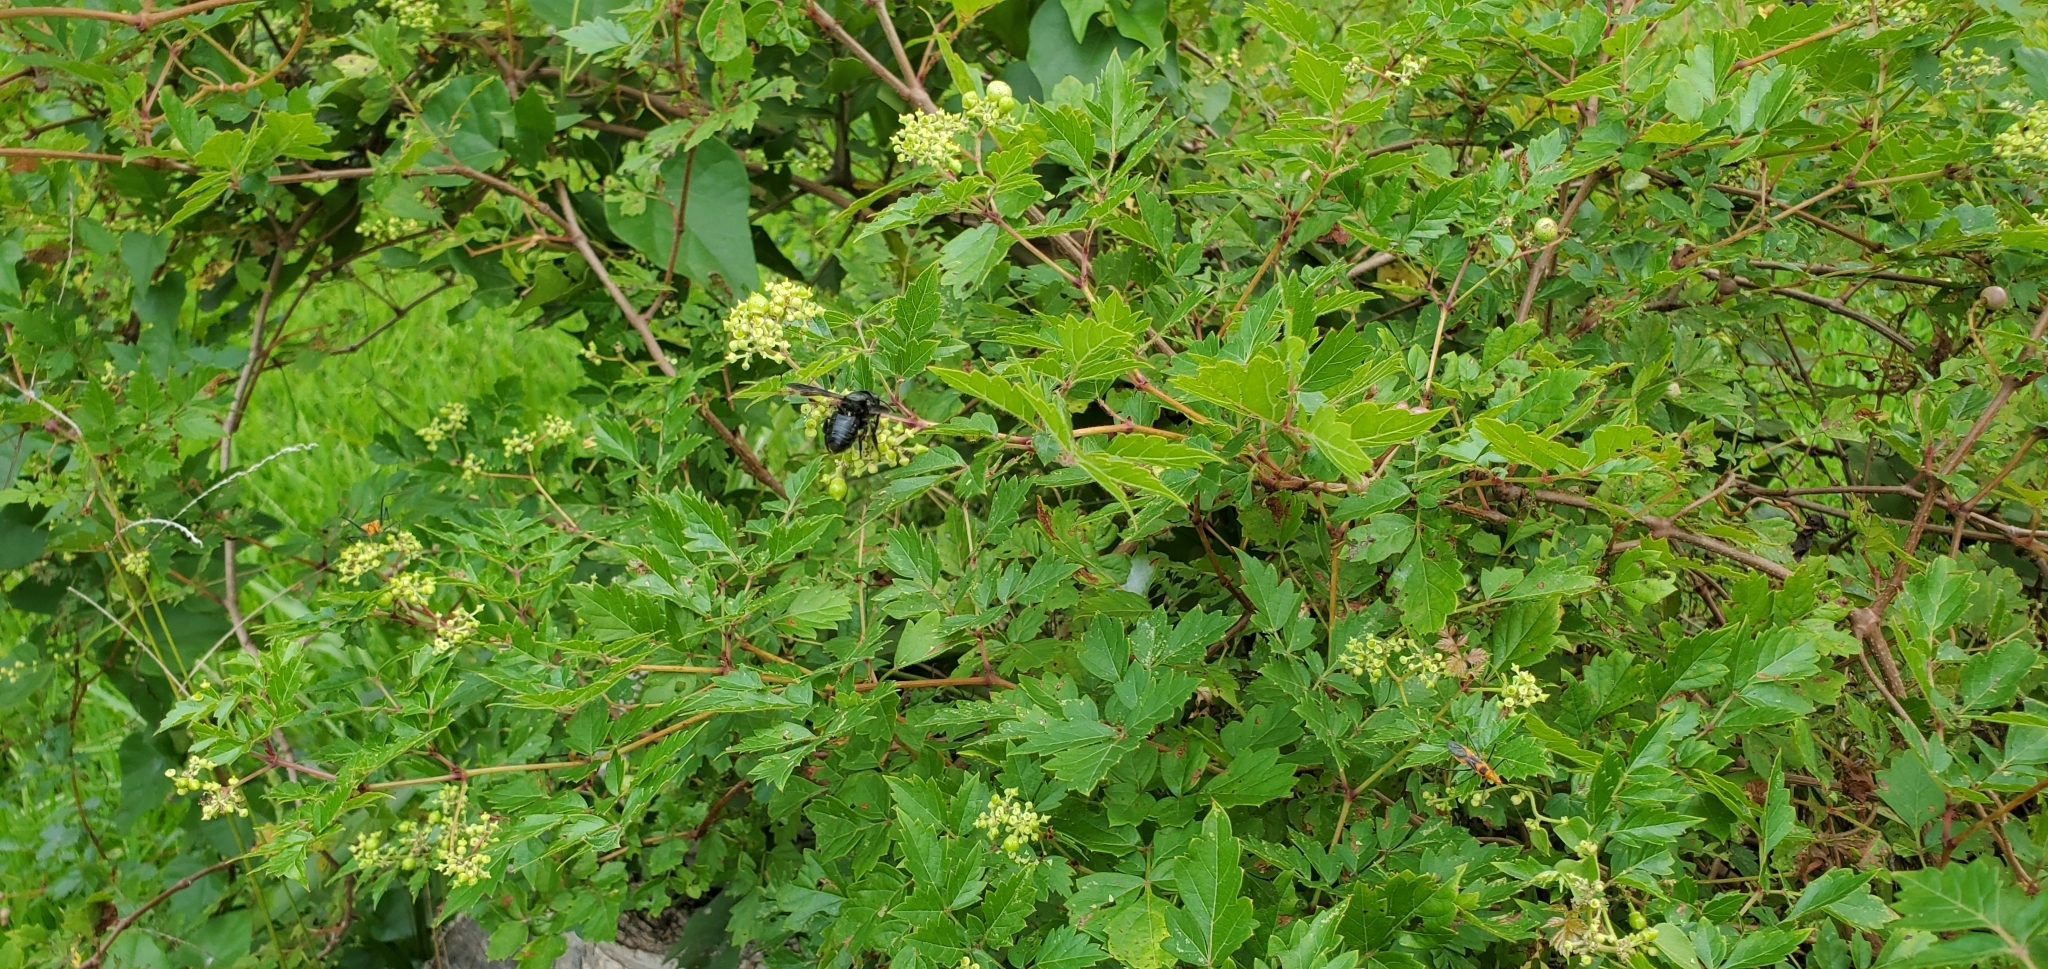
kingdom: Plantae
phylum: Tracheophyta
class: Magnoliopsida
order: Vitales
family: Vitaceae
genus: Nekemias
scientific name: Nekemias arborea
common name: Peppervine
